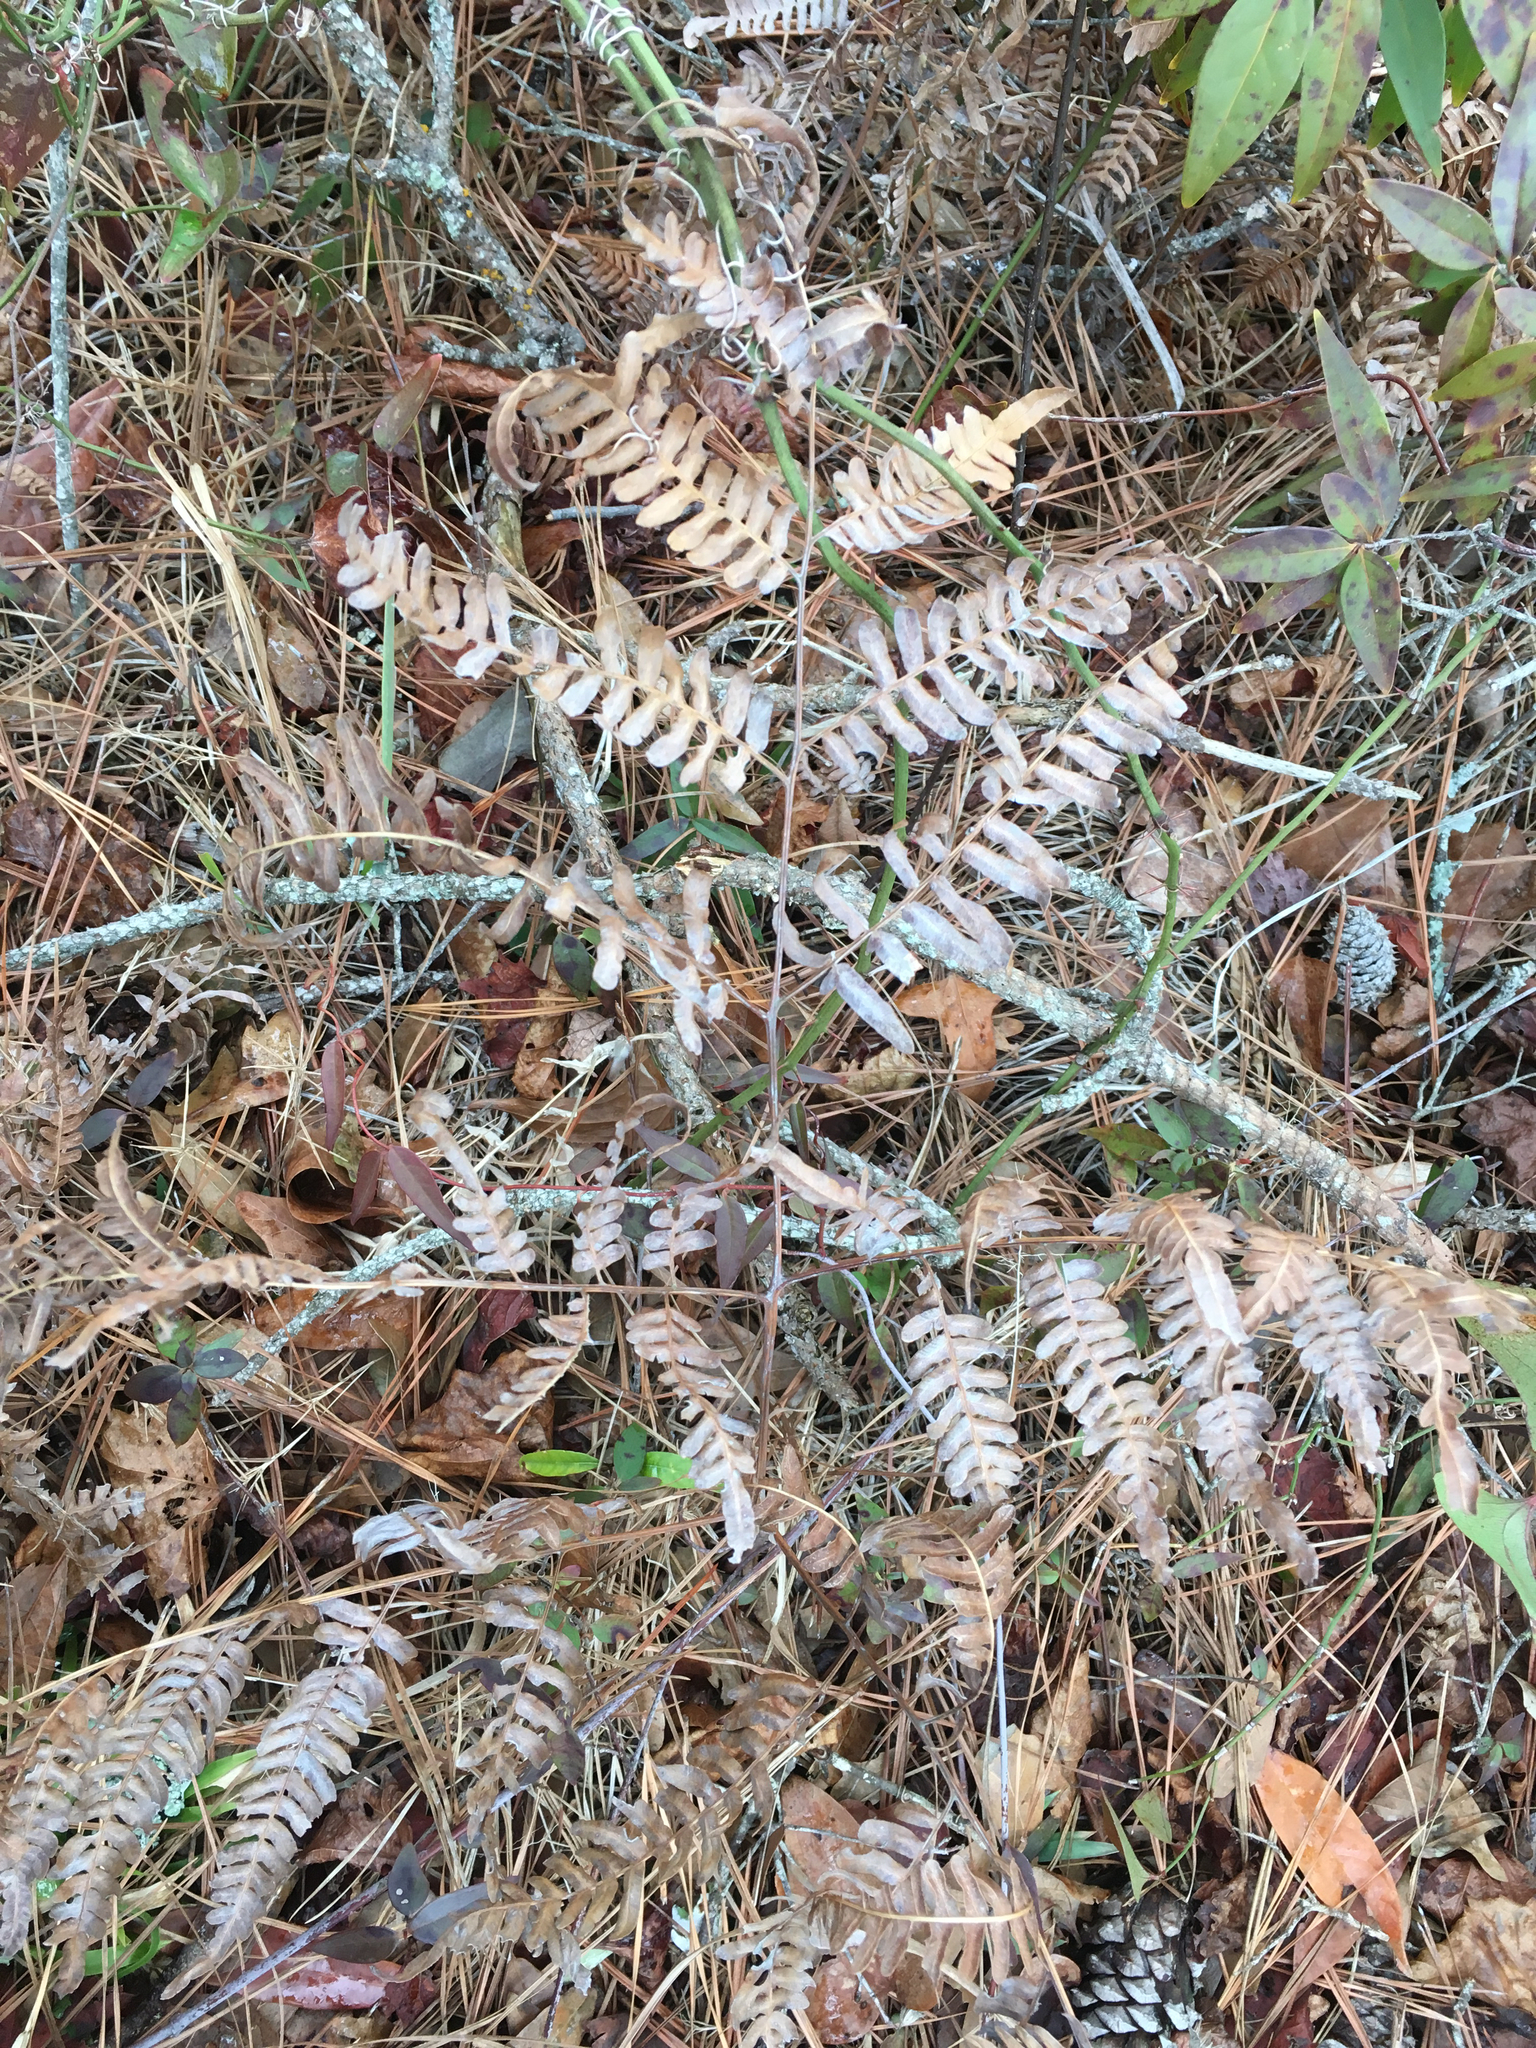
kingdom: Plantae
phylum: Tracheophyta
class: Polypodiopsida
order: Polypodiales
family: Dennstaedtiaceae
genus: Pteridium
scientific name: Pteridium
